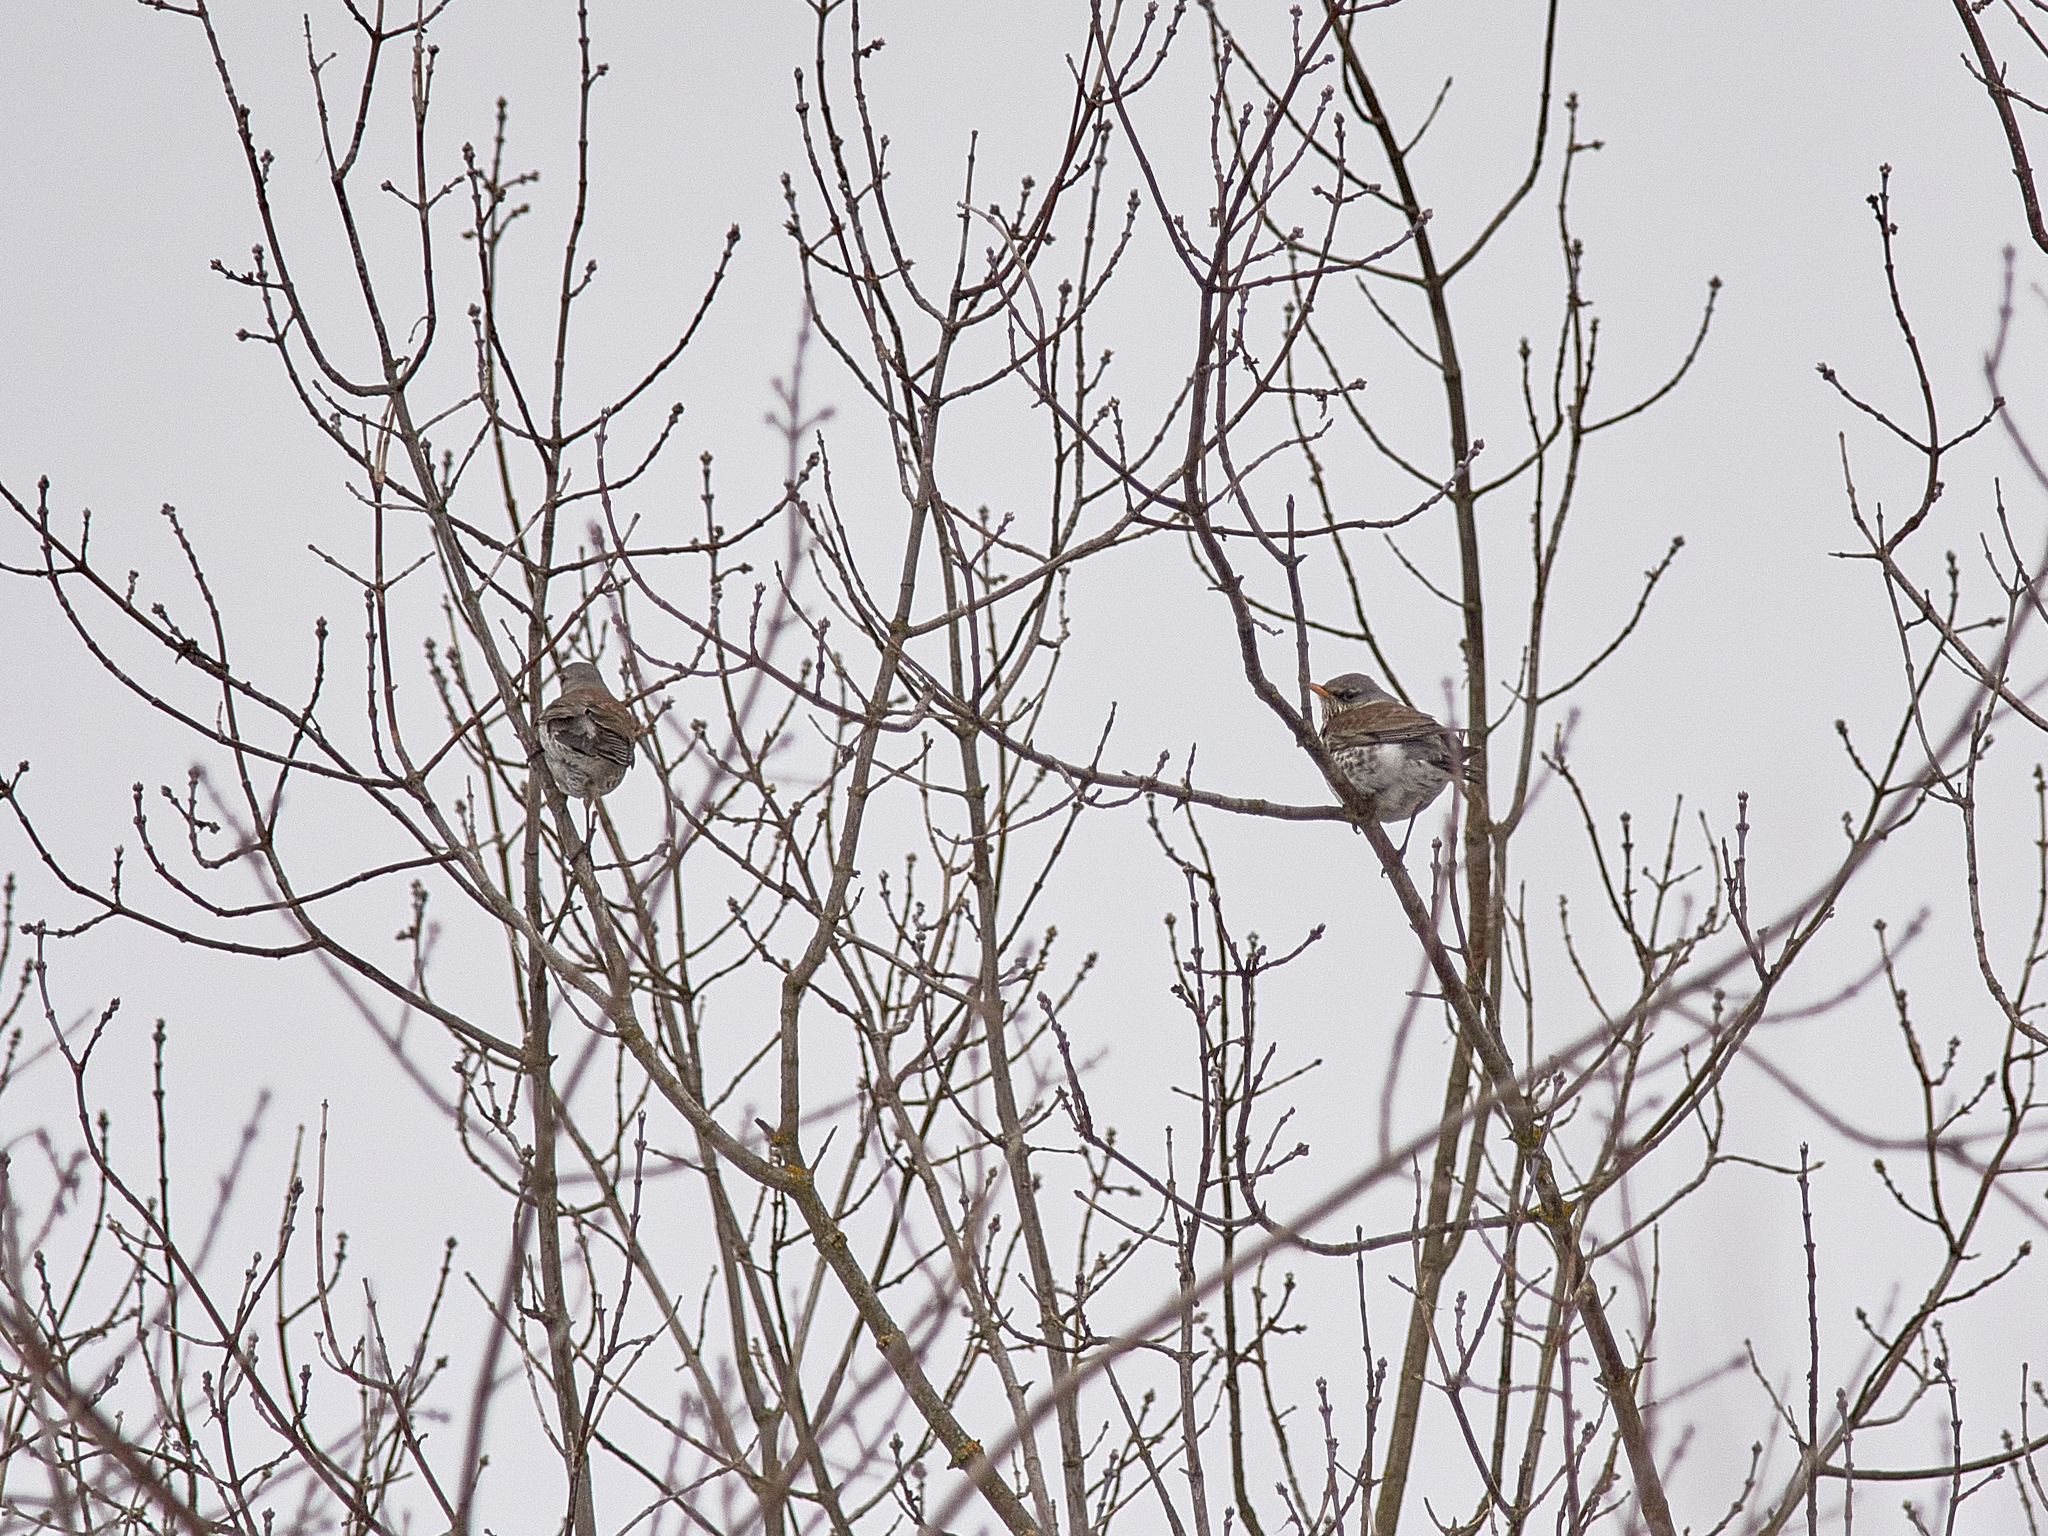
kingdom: Animalia
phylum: Chordata
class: Aves
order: Passeriformes
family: Turdidae
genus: Turdus
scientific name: Turdus pilaris
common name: Fieldfare
